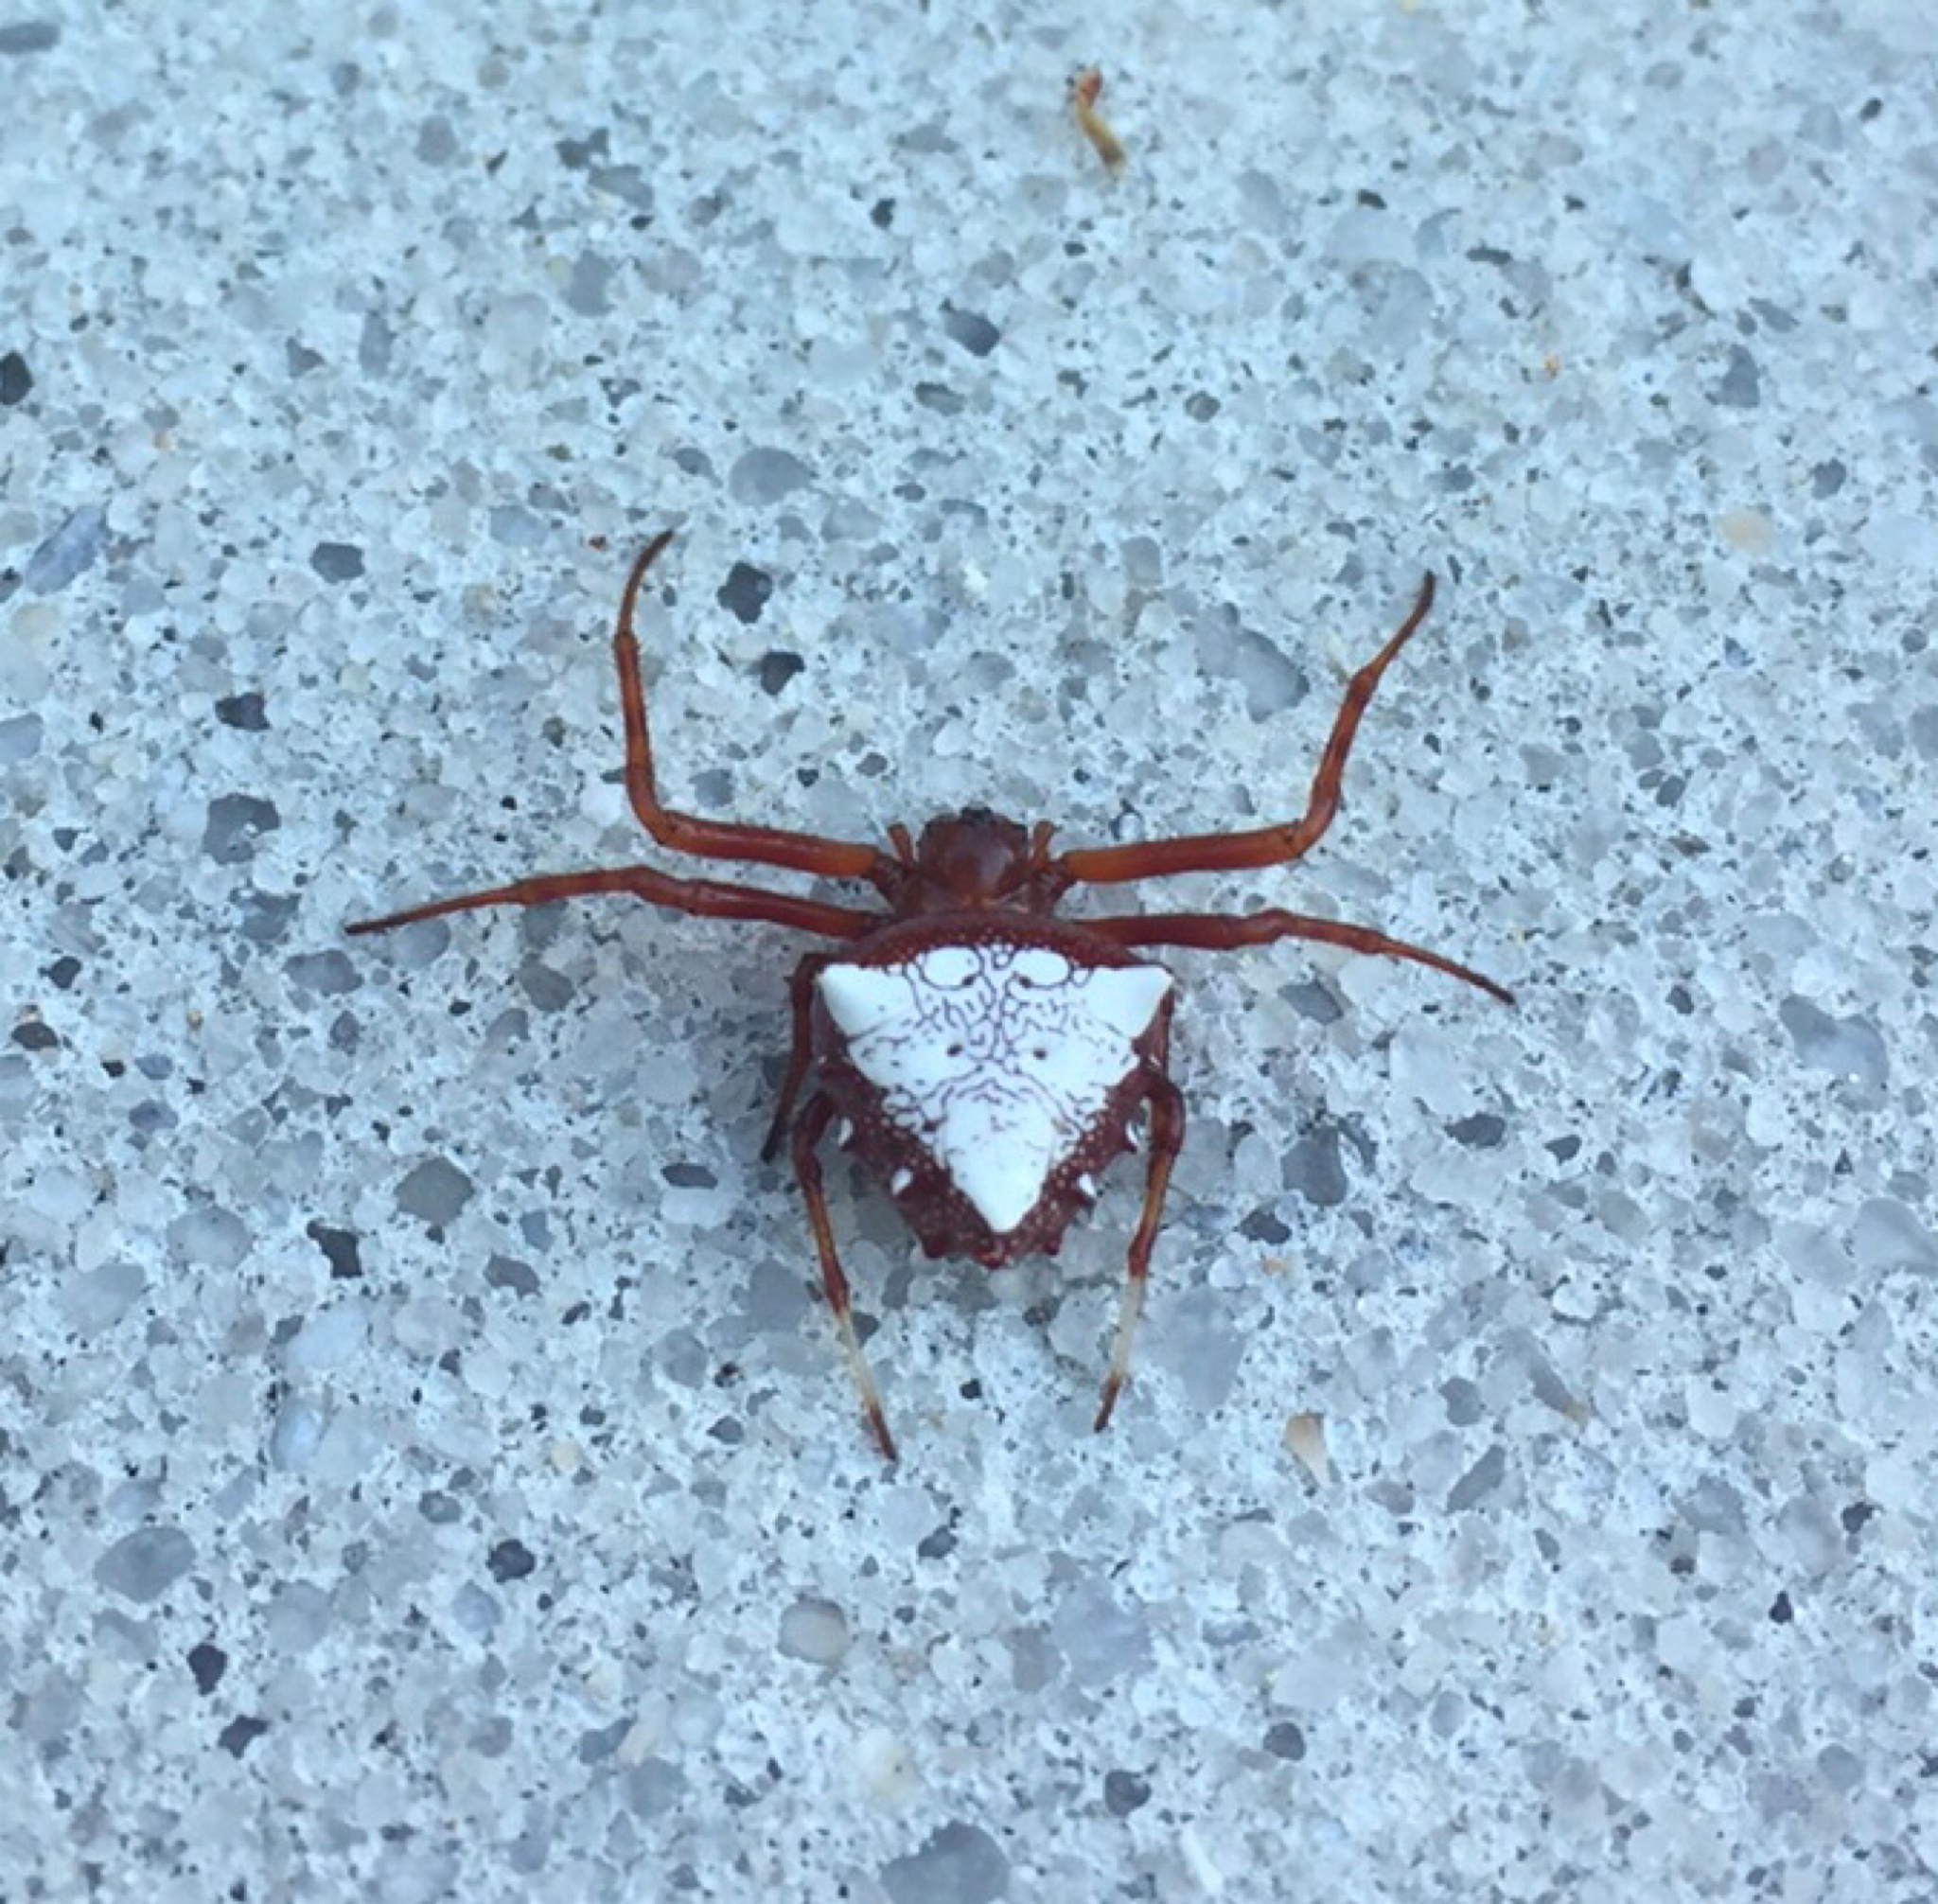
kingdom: Animalia
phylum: Arthropoda
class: Arachnida
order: Araneae
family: Araneidae
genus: Verrucosa
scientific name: Verrucosa arenata
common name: Orb weavers
